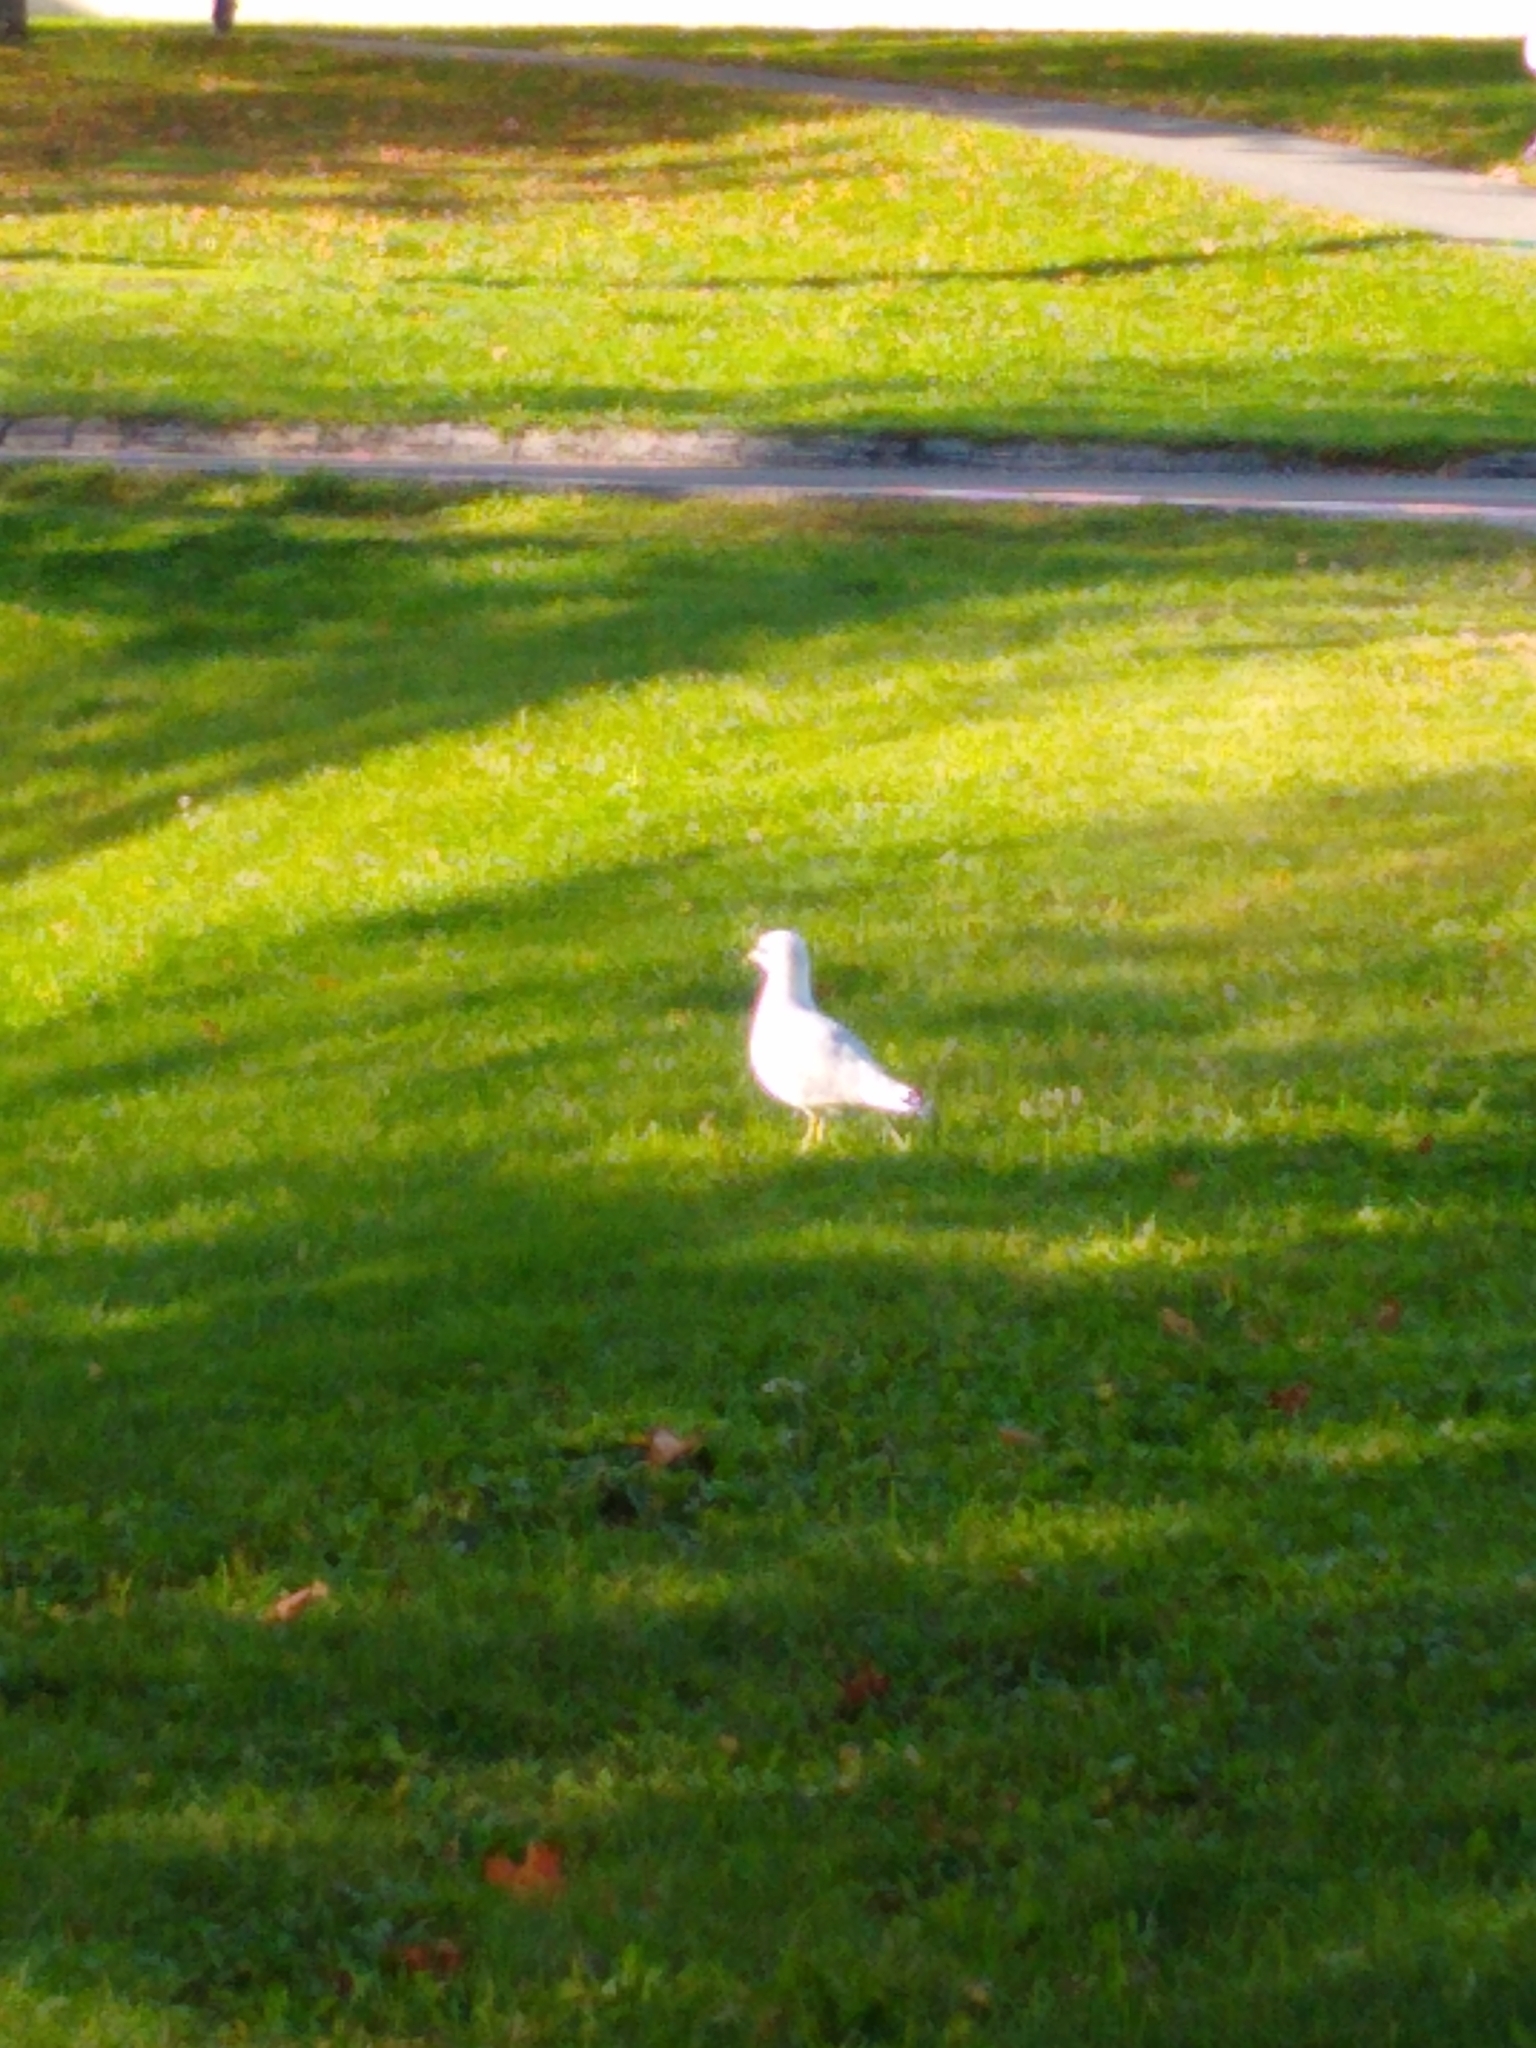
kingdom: Animalia
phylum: Chordata
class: Aves
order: Charadriiformes
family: Laridae
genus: Larus
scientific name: Larus delawarensis
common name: Ring-billed gull
